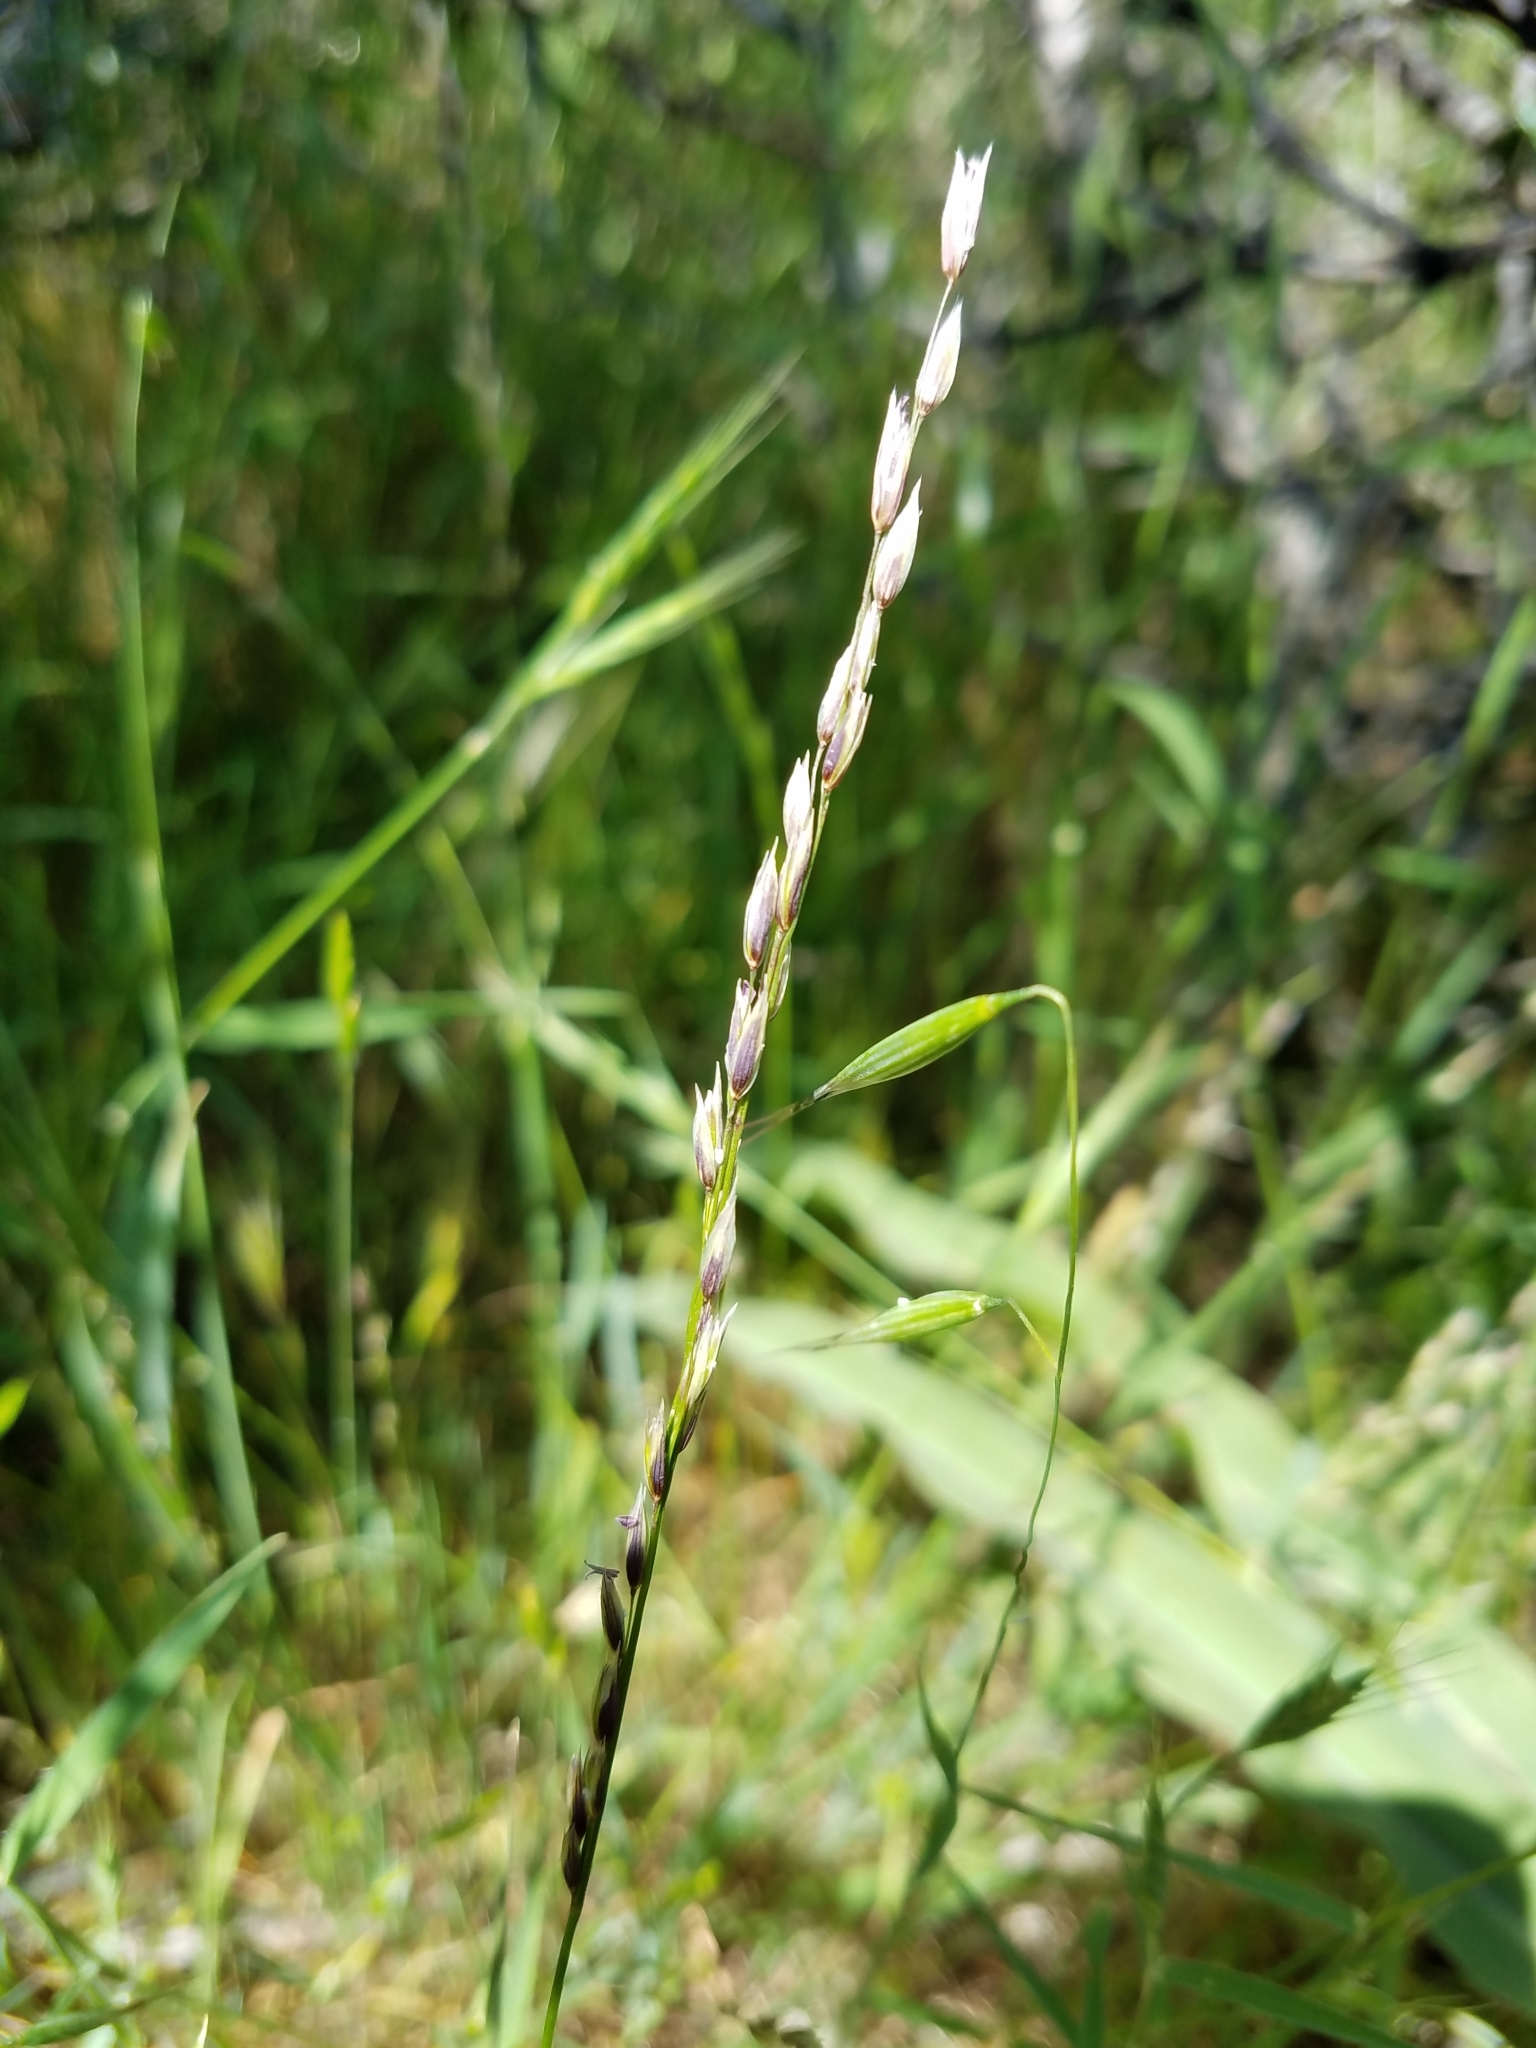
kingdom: Plantae
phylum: Tracheophyta
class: Liliopsida
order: Poales
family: Poaceae
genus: Melica
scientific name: Melica torreyana
